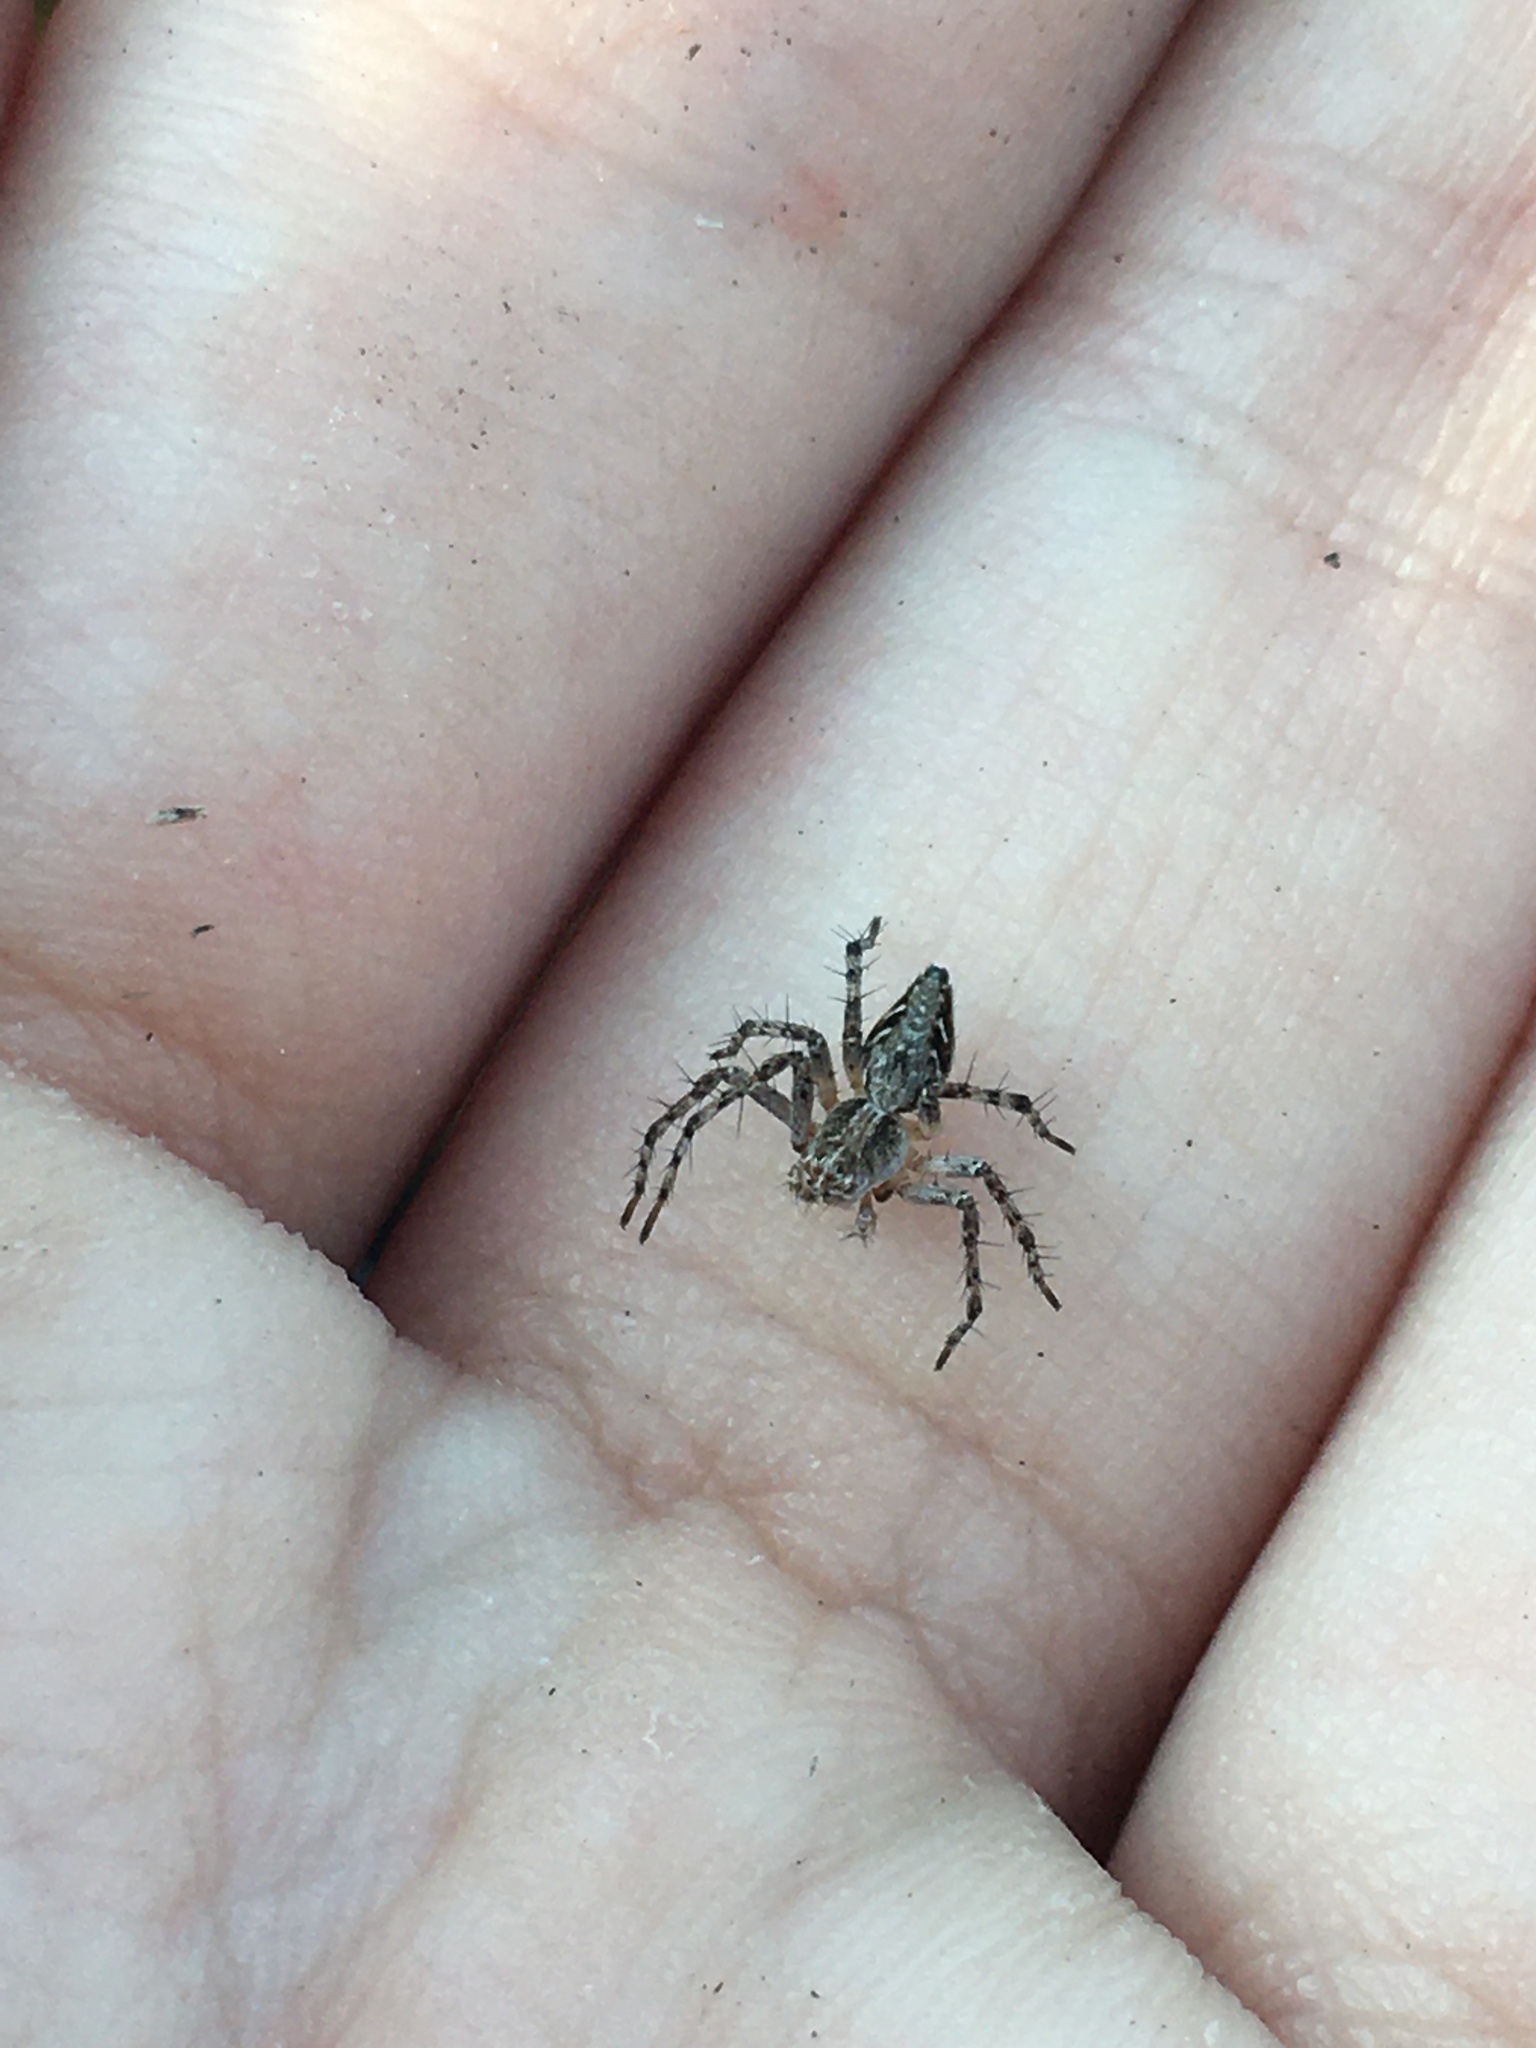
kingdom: Animalia
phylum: Arthropoda
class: Arachnida
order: Araneae
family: Oxyopidae
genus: Oxyopes
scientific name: Oxyopes scalaris
